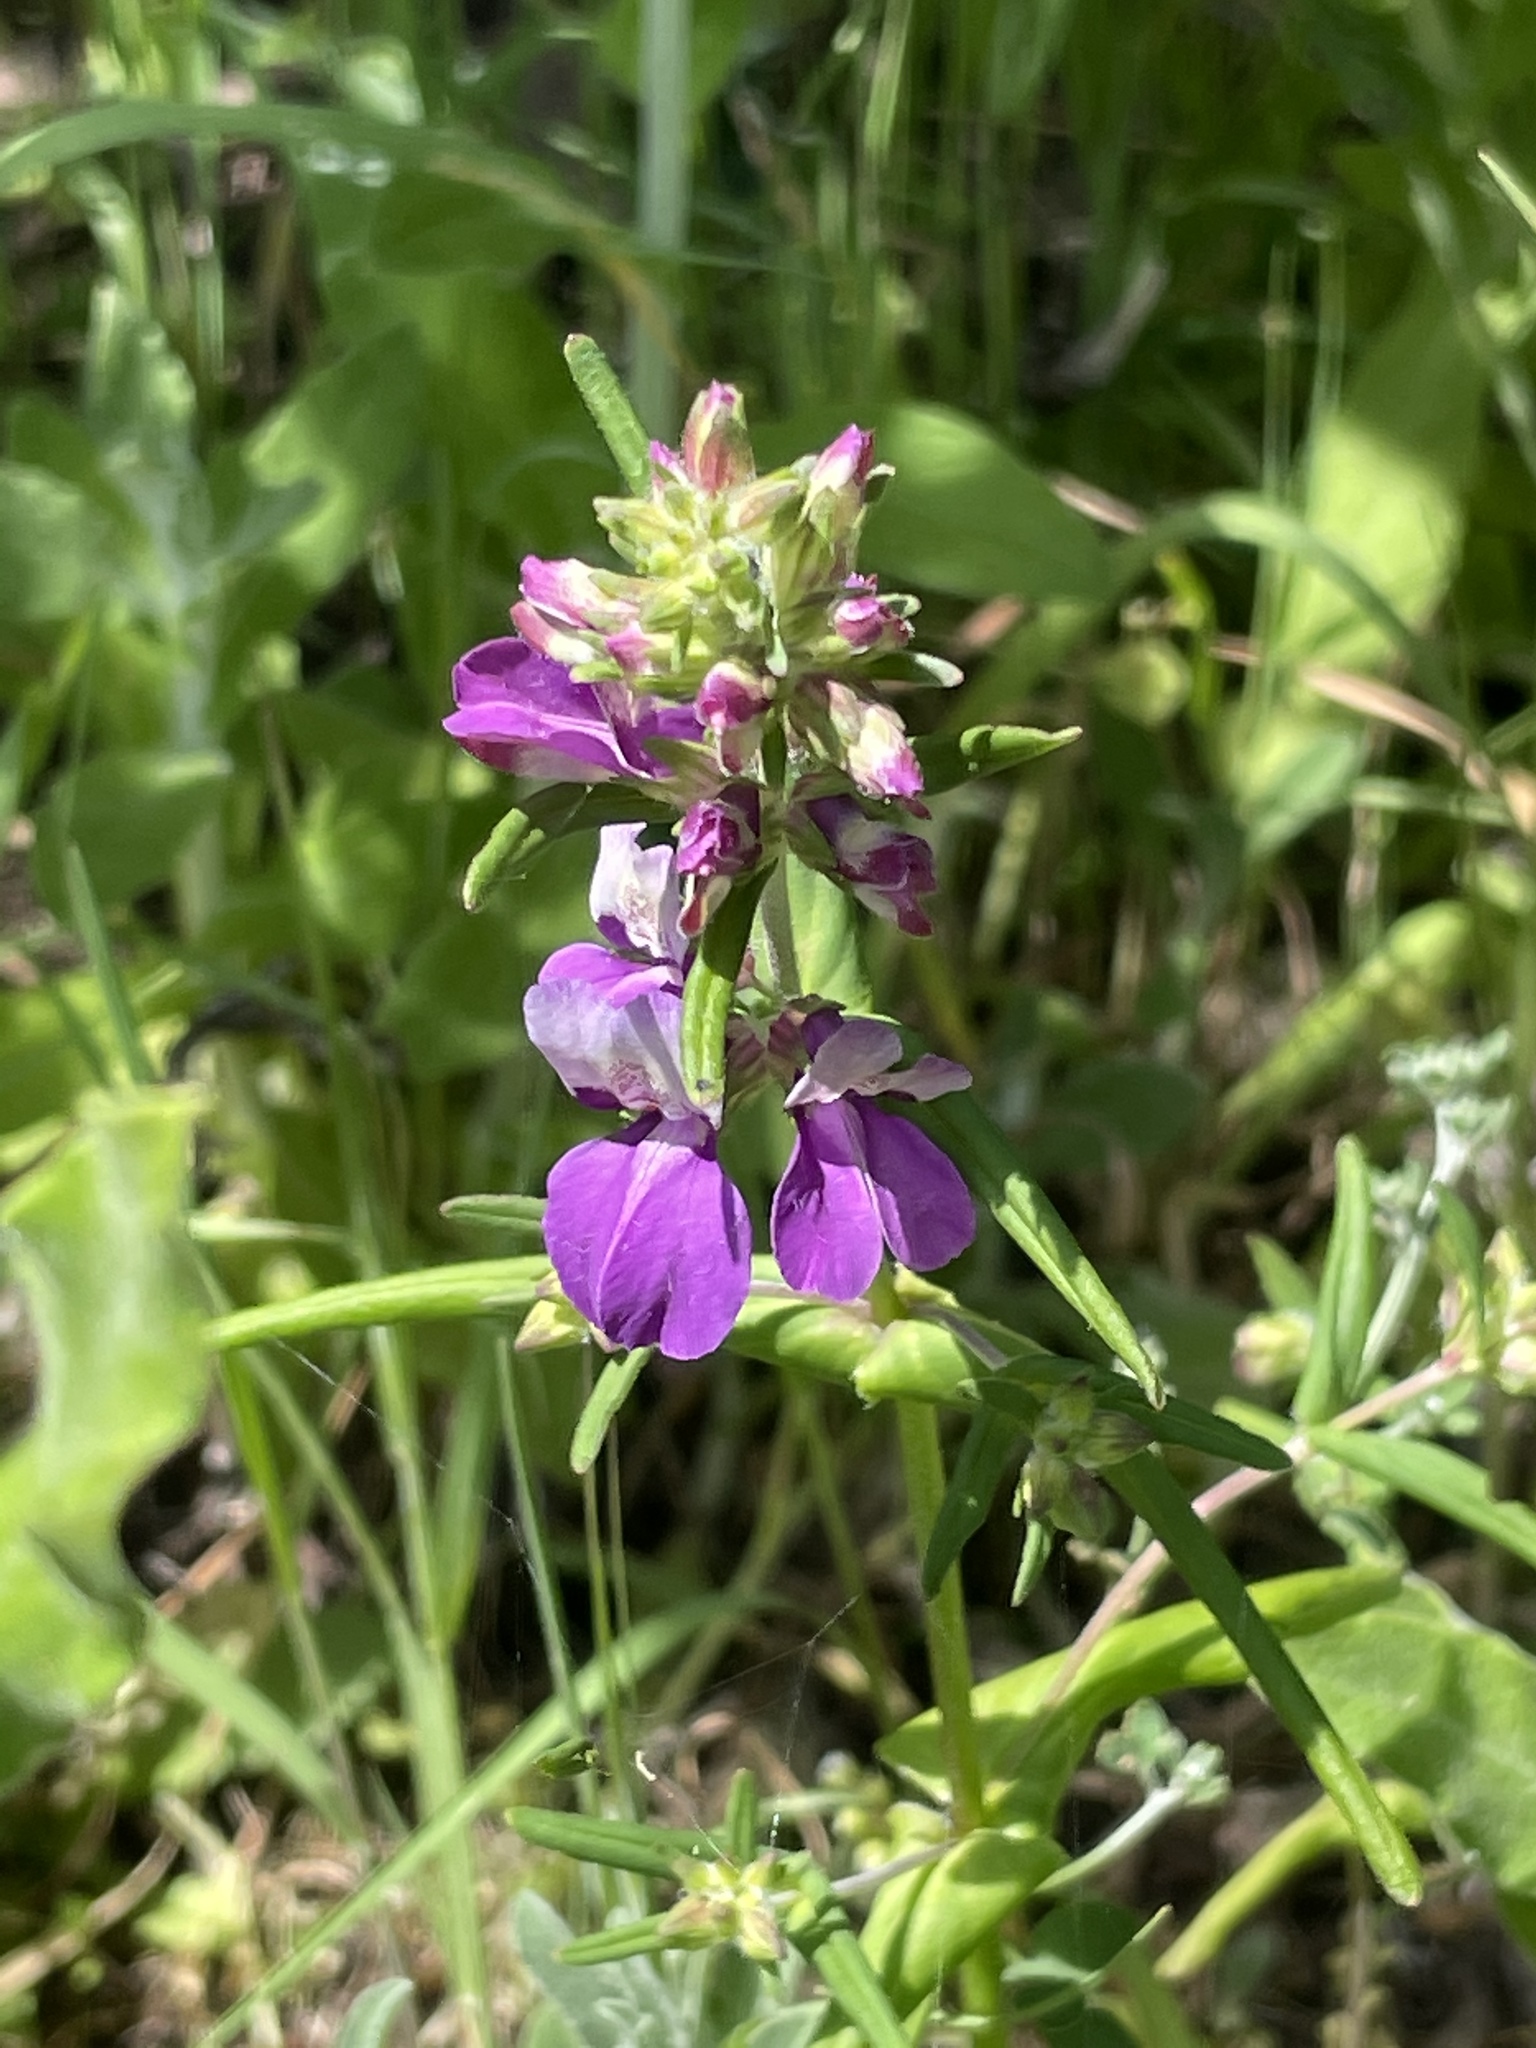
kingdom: Plantae
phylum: Tracheophyta
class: Magnoliopsida
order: Lamiales
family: Plantaginaceae
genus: Collinsia
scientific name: Collinsia heterophylla
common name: Chinese-houses
